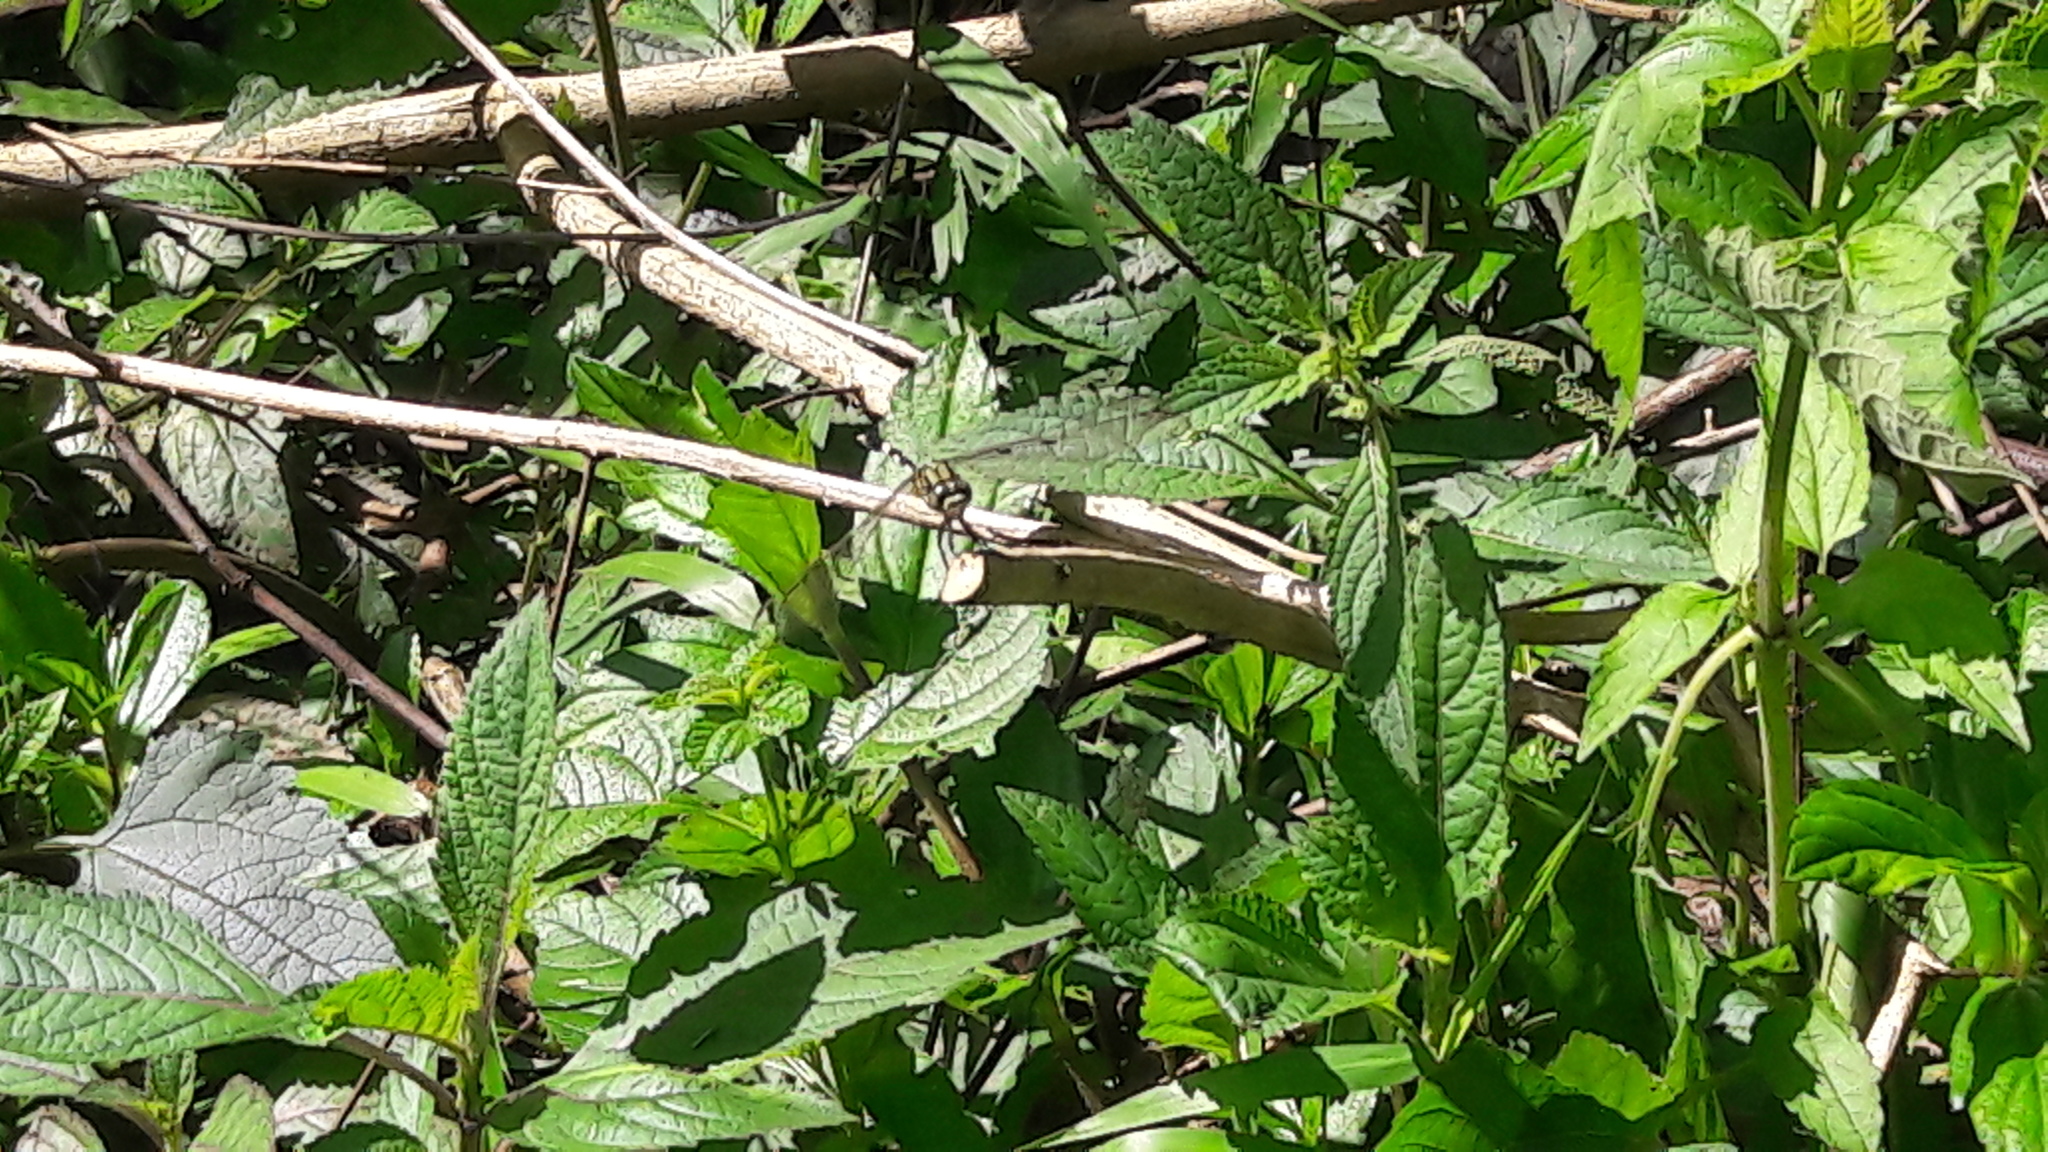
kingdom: Animalia
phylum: Arthropoda
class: Insecta
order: Odonata
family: Libellulidae
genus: Orthetrum
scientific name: Orthetrum sabina
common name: Slender skimmer
